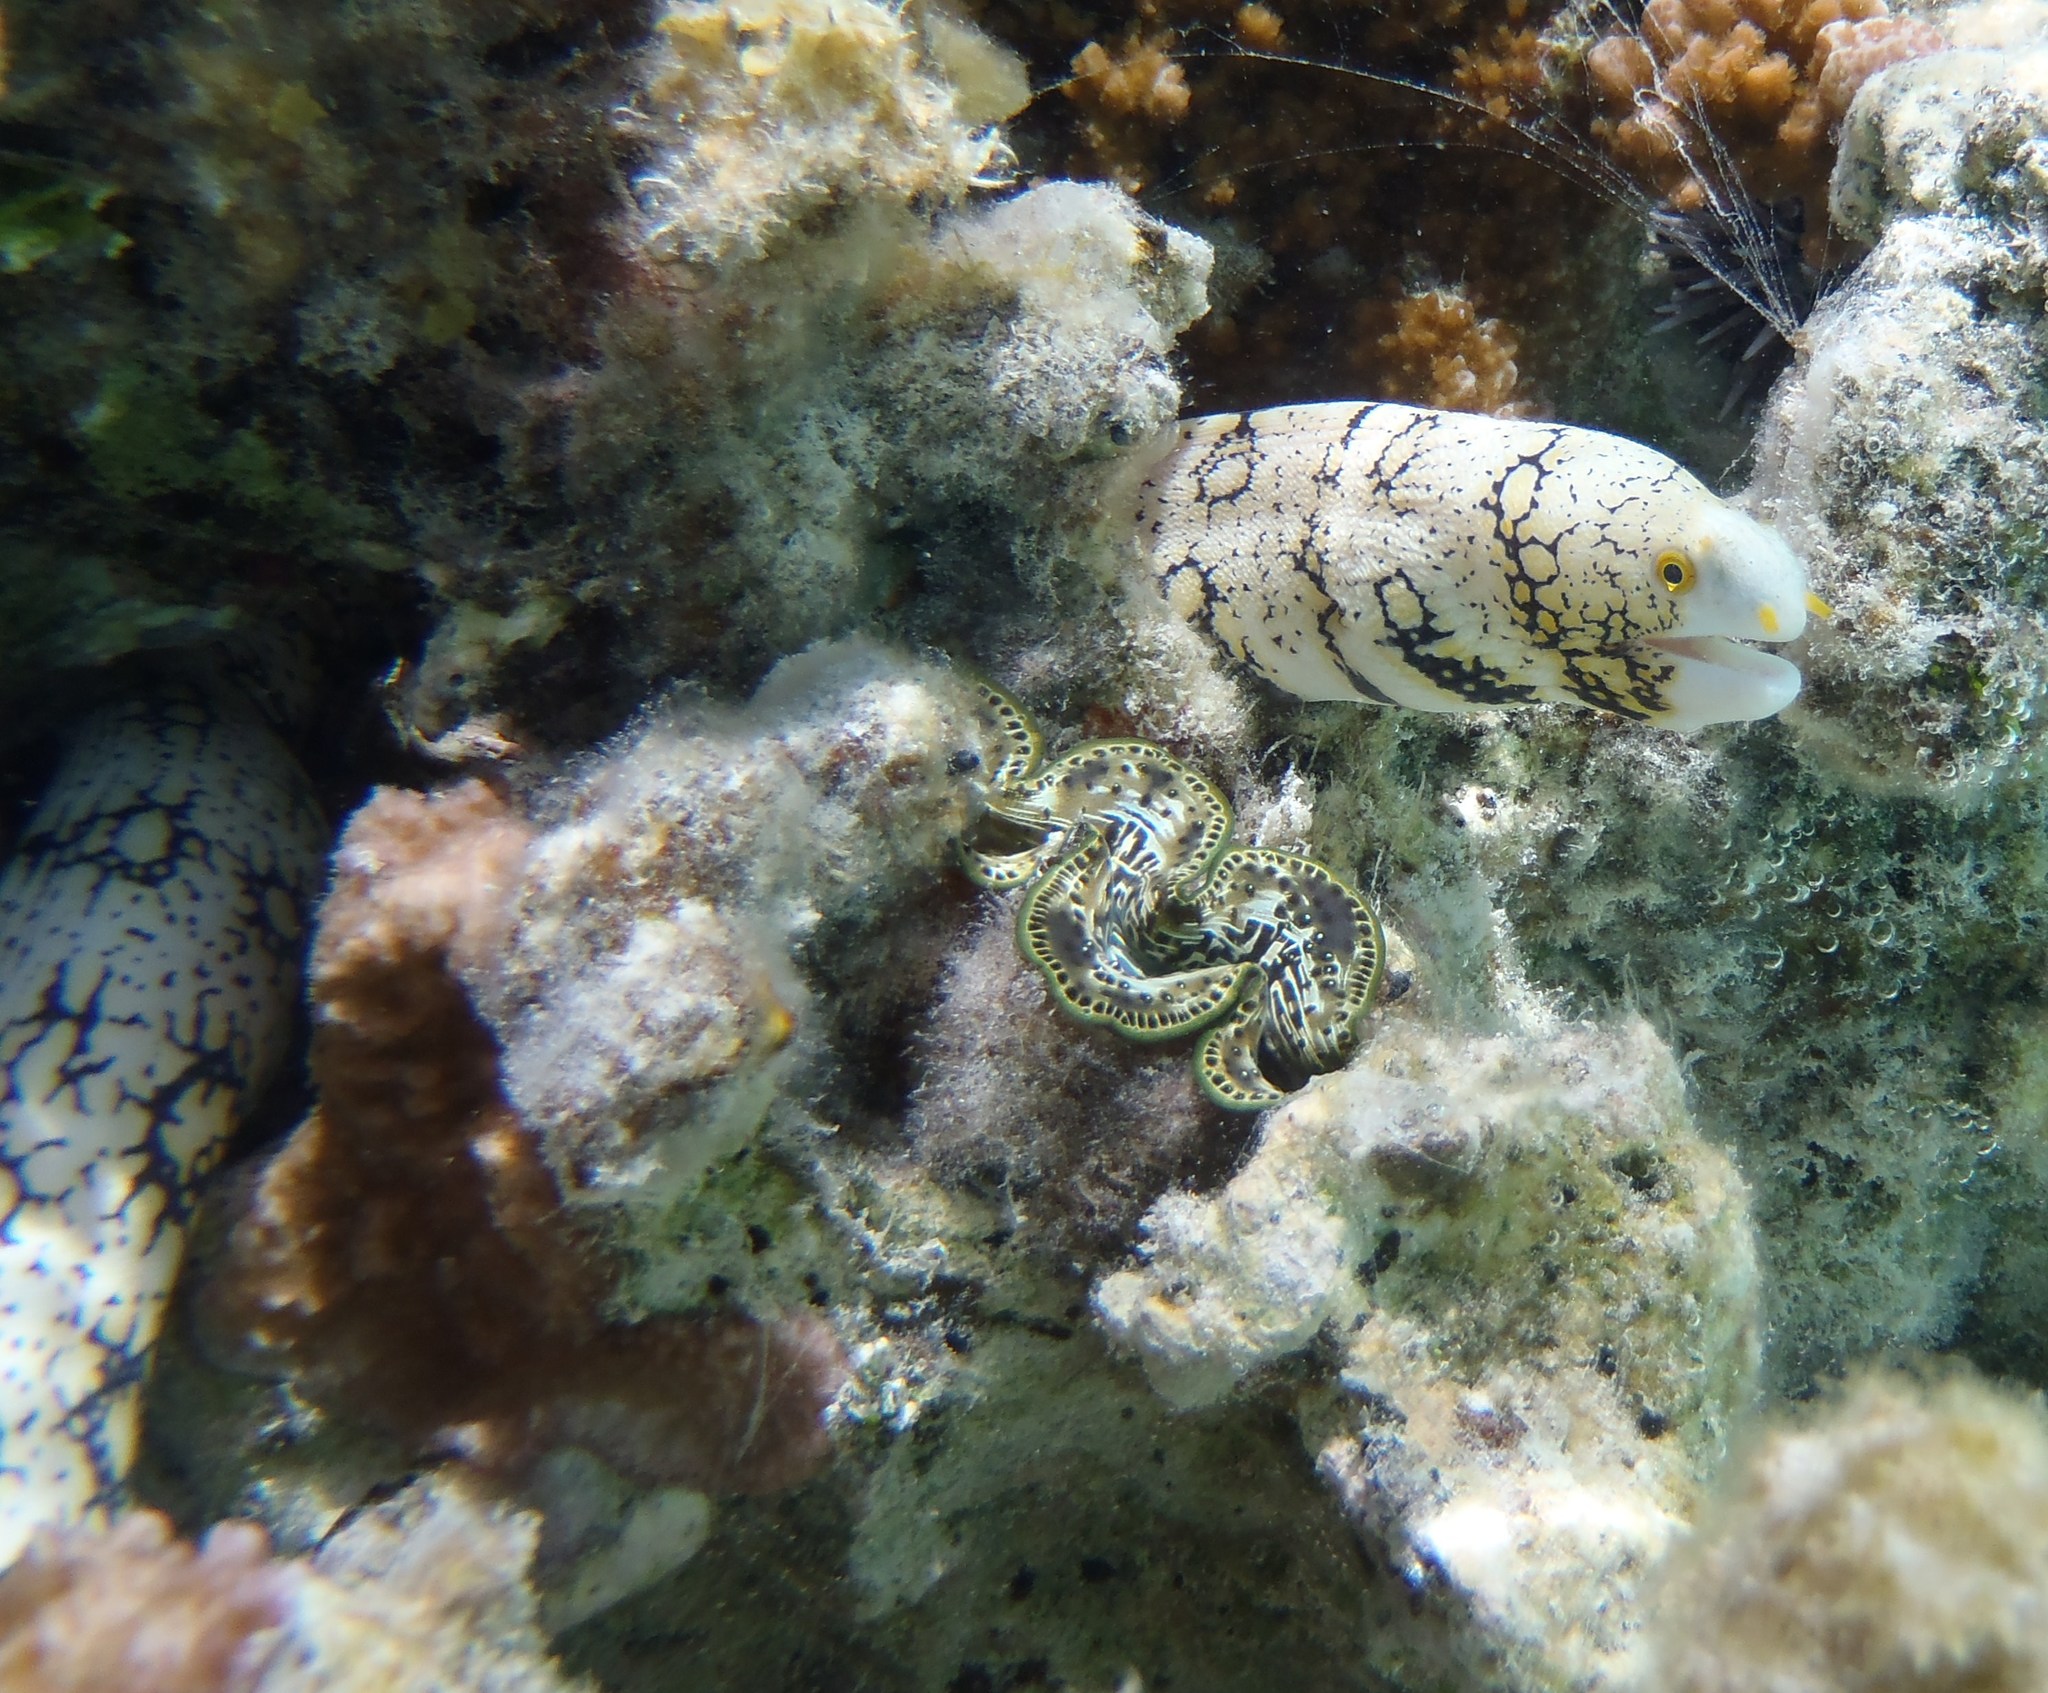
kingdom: Animalia
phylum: Chordata
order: Anguilliformes
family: Muraenidae
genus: Echidna
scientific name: Echidna nebulosa
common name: Snowflake moray
